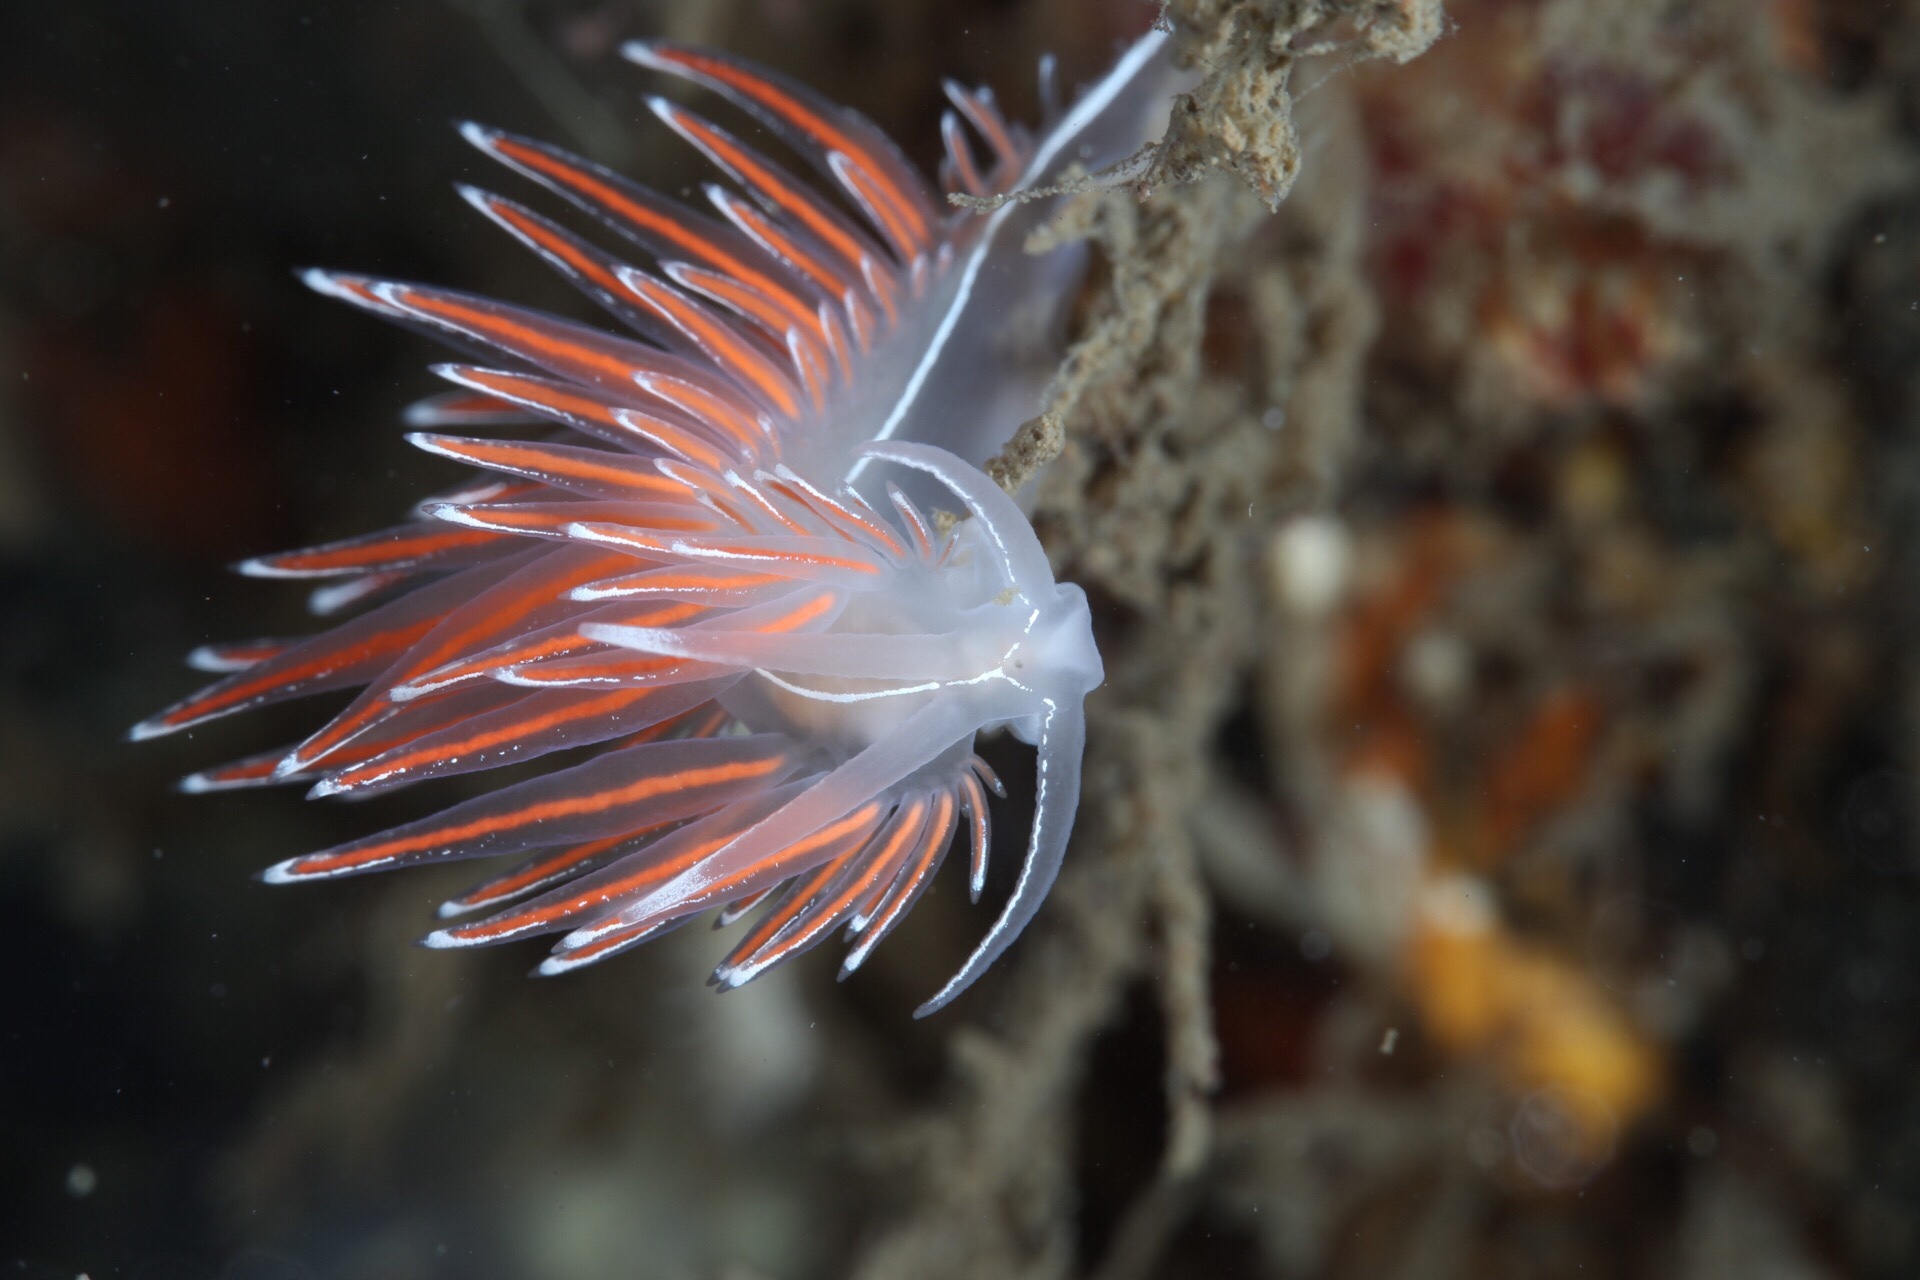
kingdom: Animalia
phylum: Mollusca
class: Gastropoda
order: Nudibranchia
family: Coryphellidae
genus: Coryphella
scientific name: Coryphella lineata
